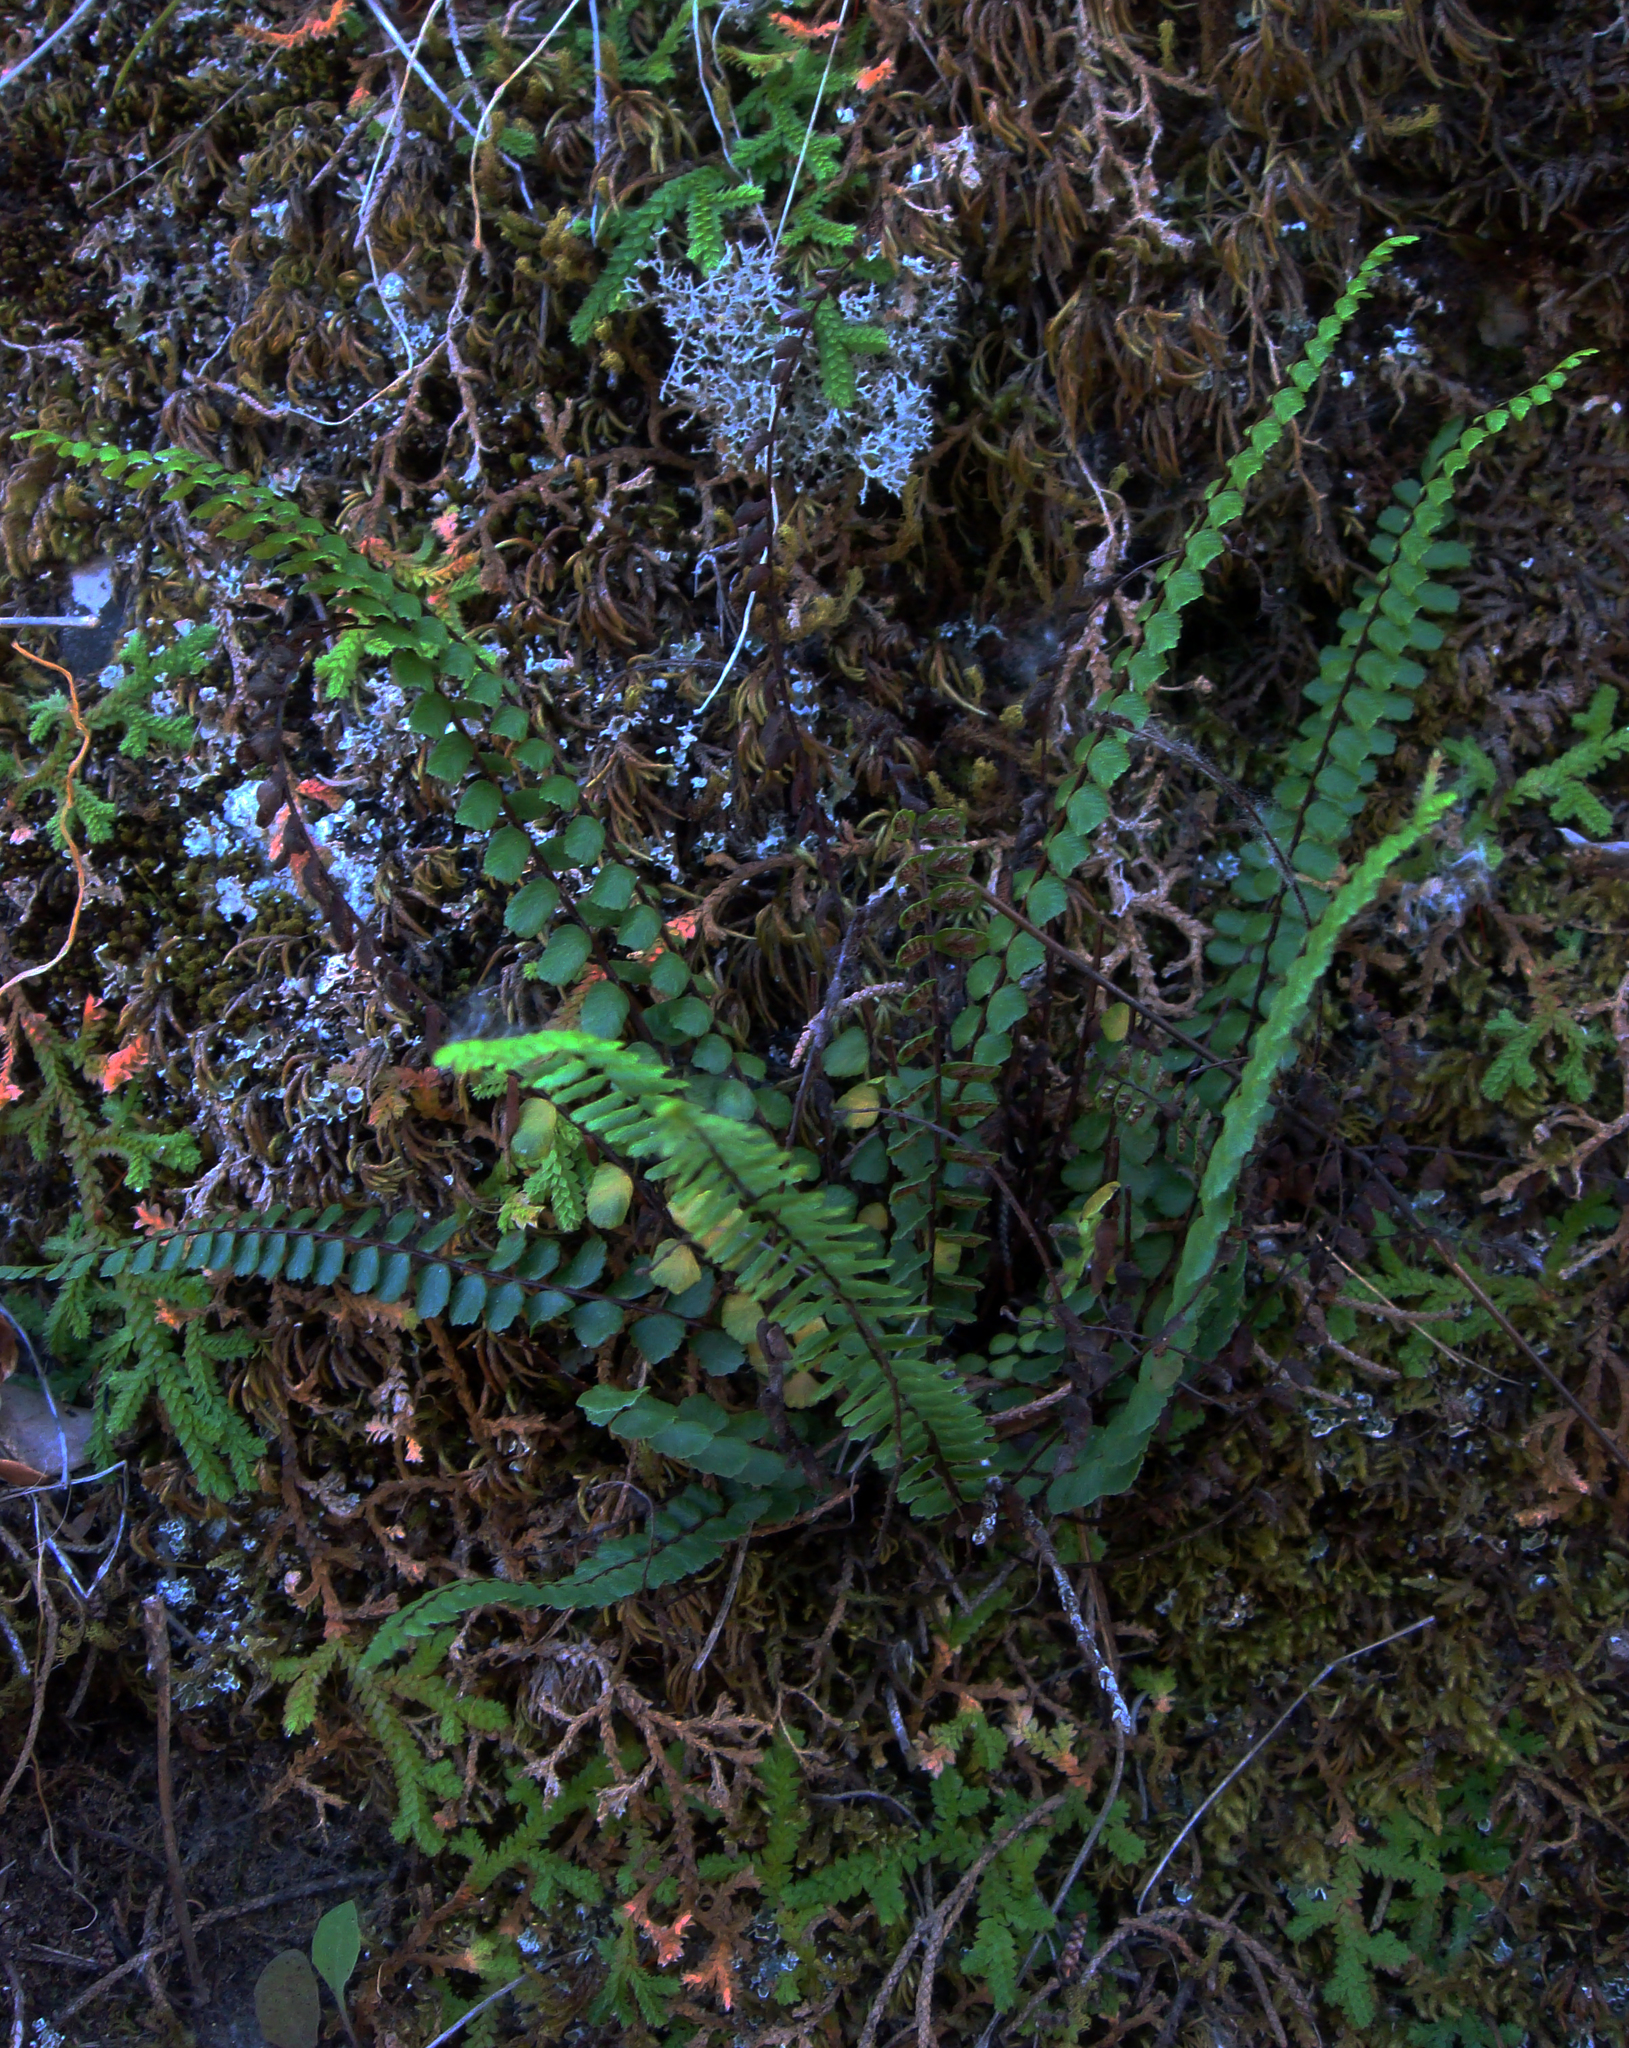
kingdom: Plantae
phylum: Tracheophyta
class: Polypodiopsida
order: Polypodiales
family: Aspleniaceae
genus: Asplenium
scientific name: Asplenium quadrivalens
